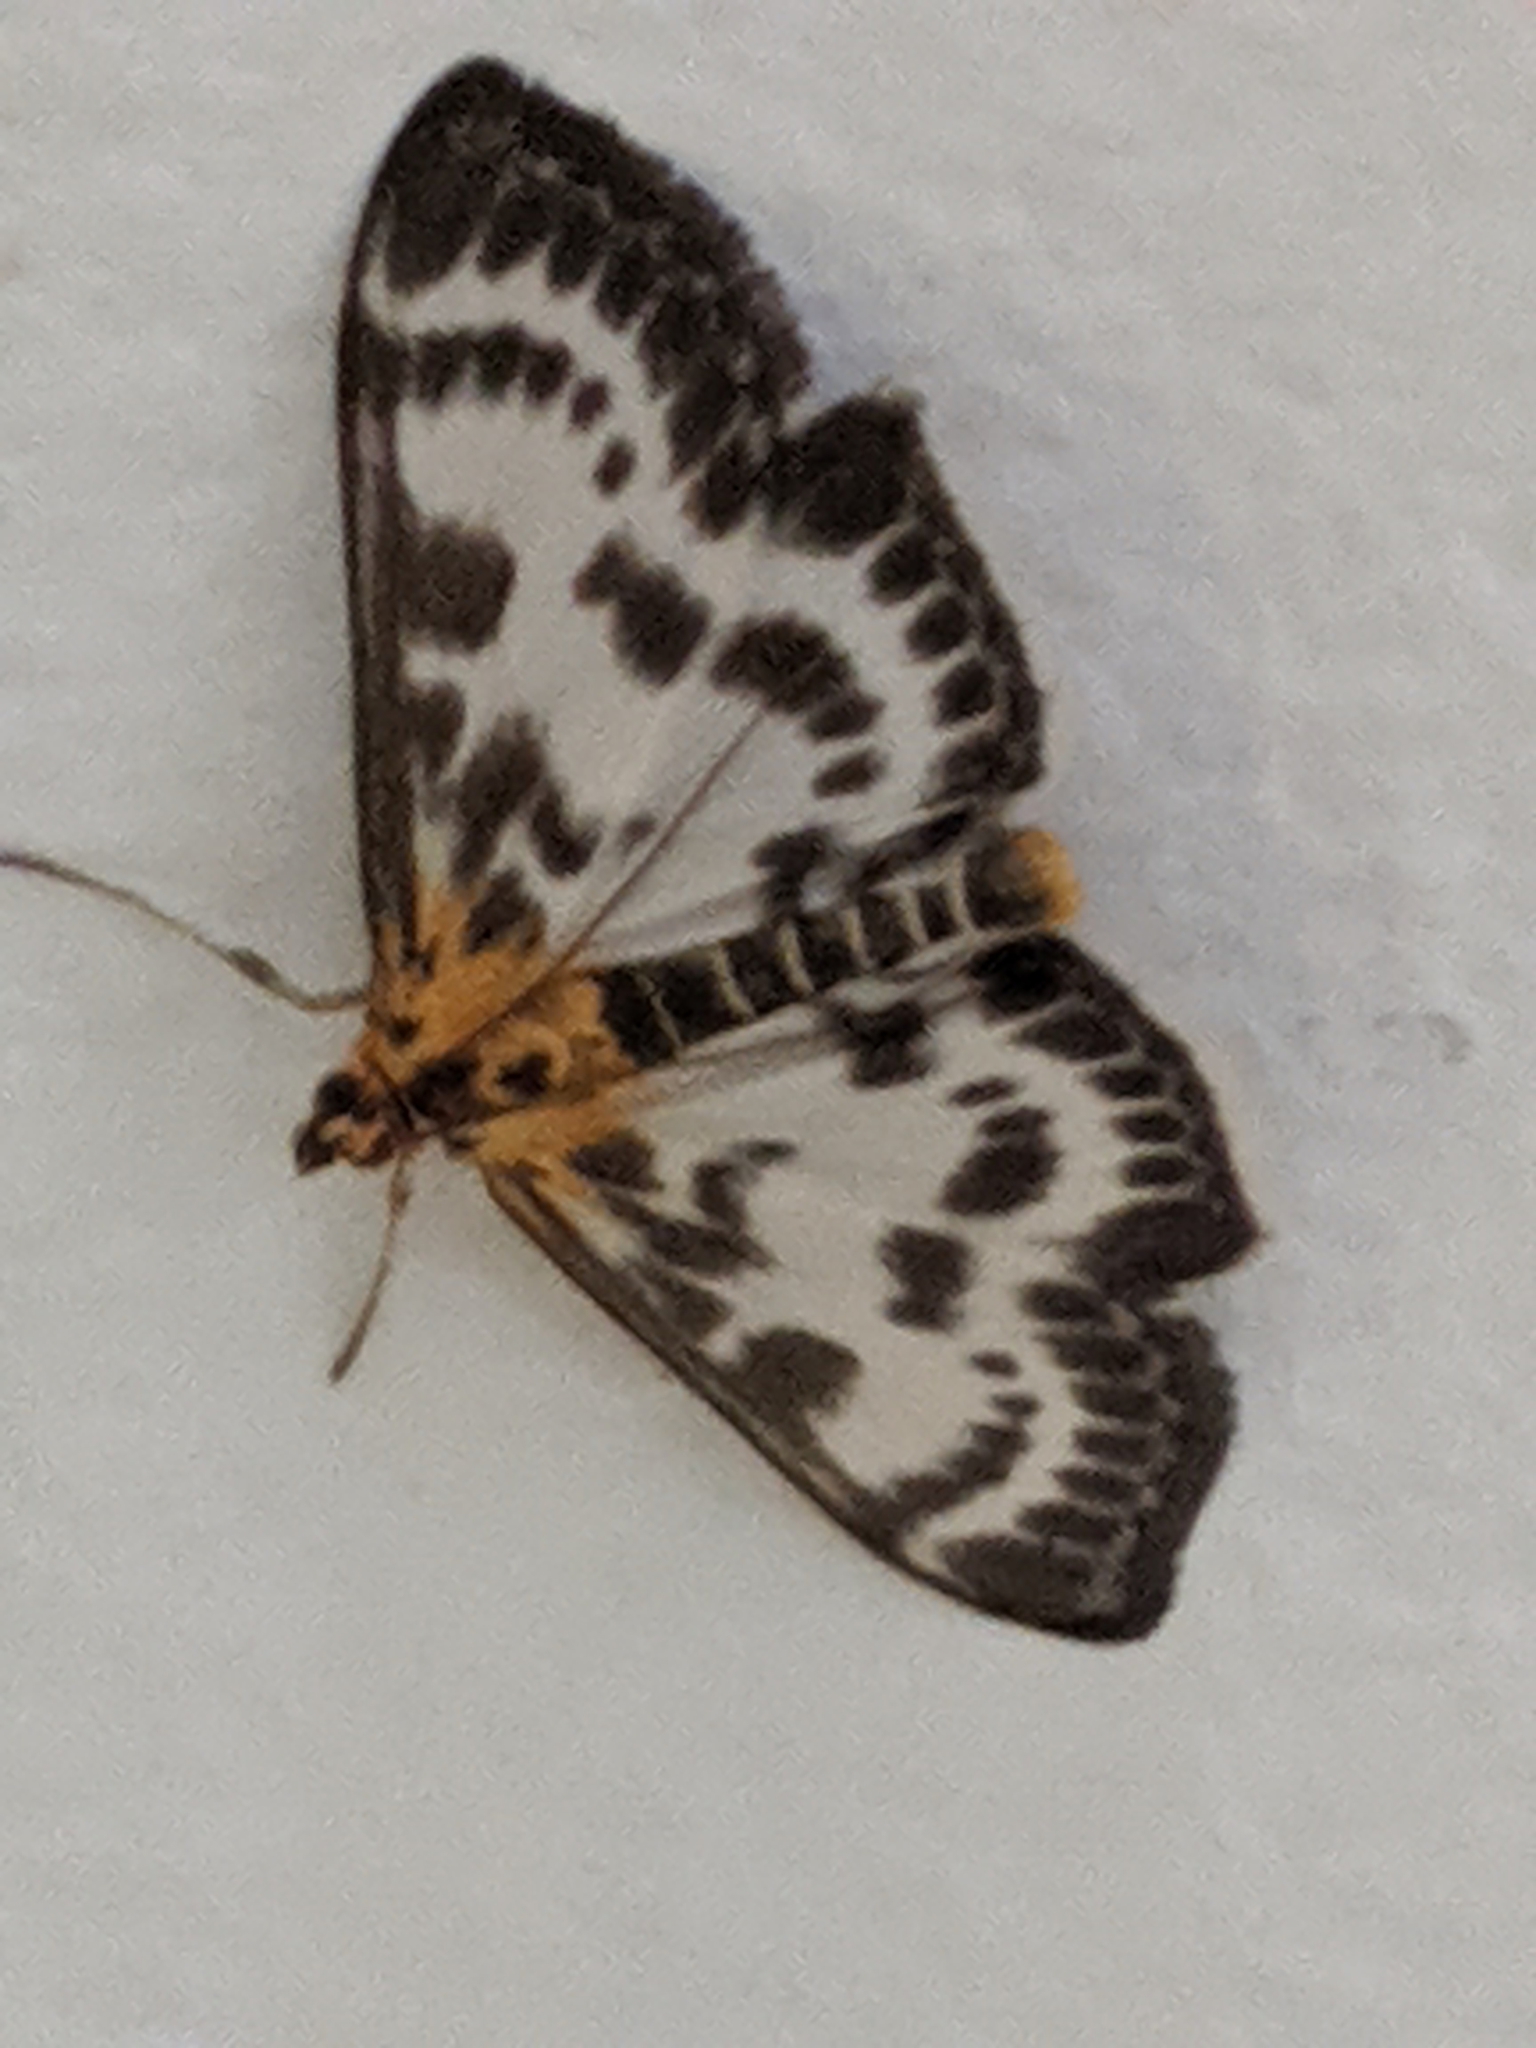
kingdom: Animalia
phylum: Arthropoda
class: Insecta
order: Lepidoptera
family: Crambidae
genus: Anania
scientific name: Anania hortulata
